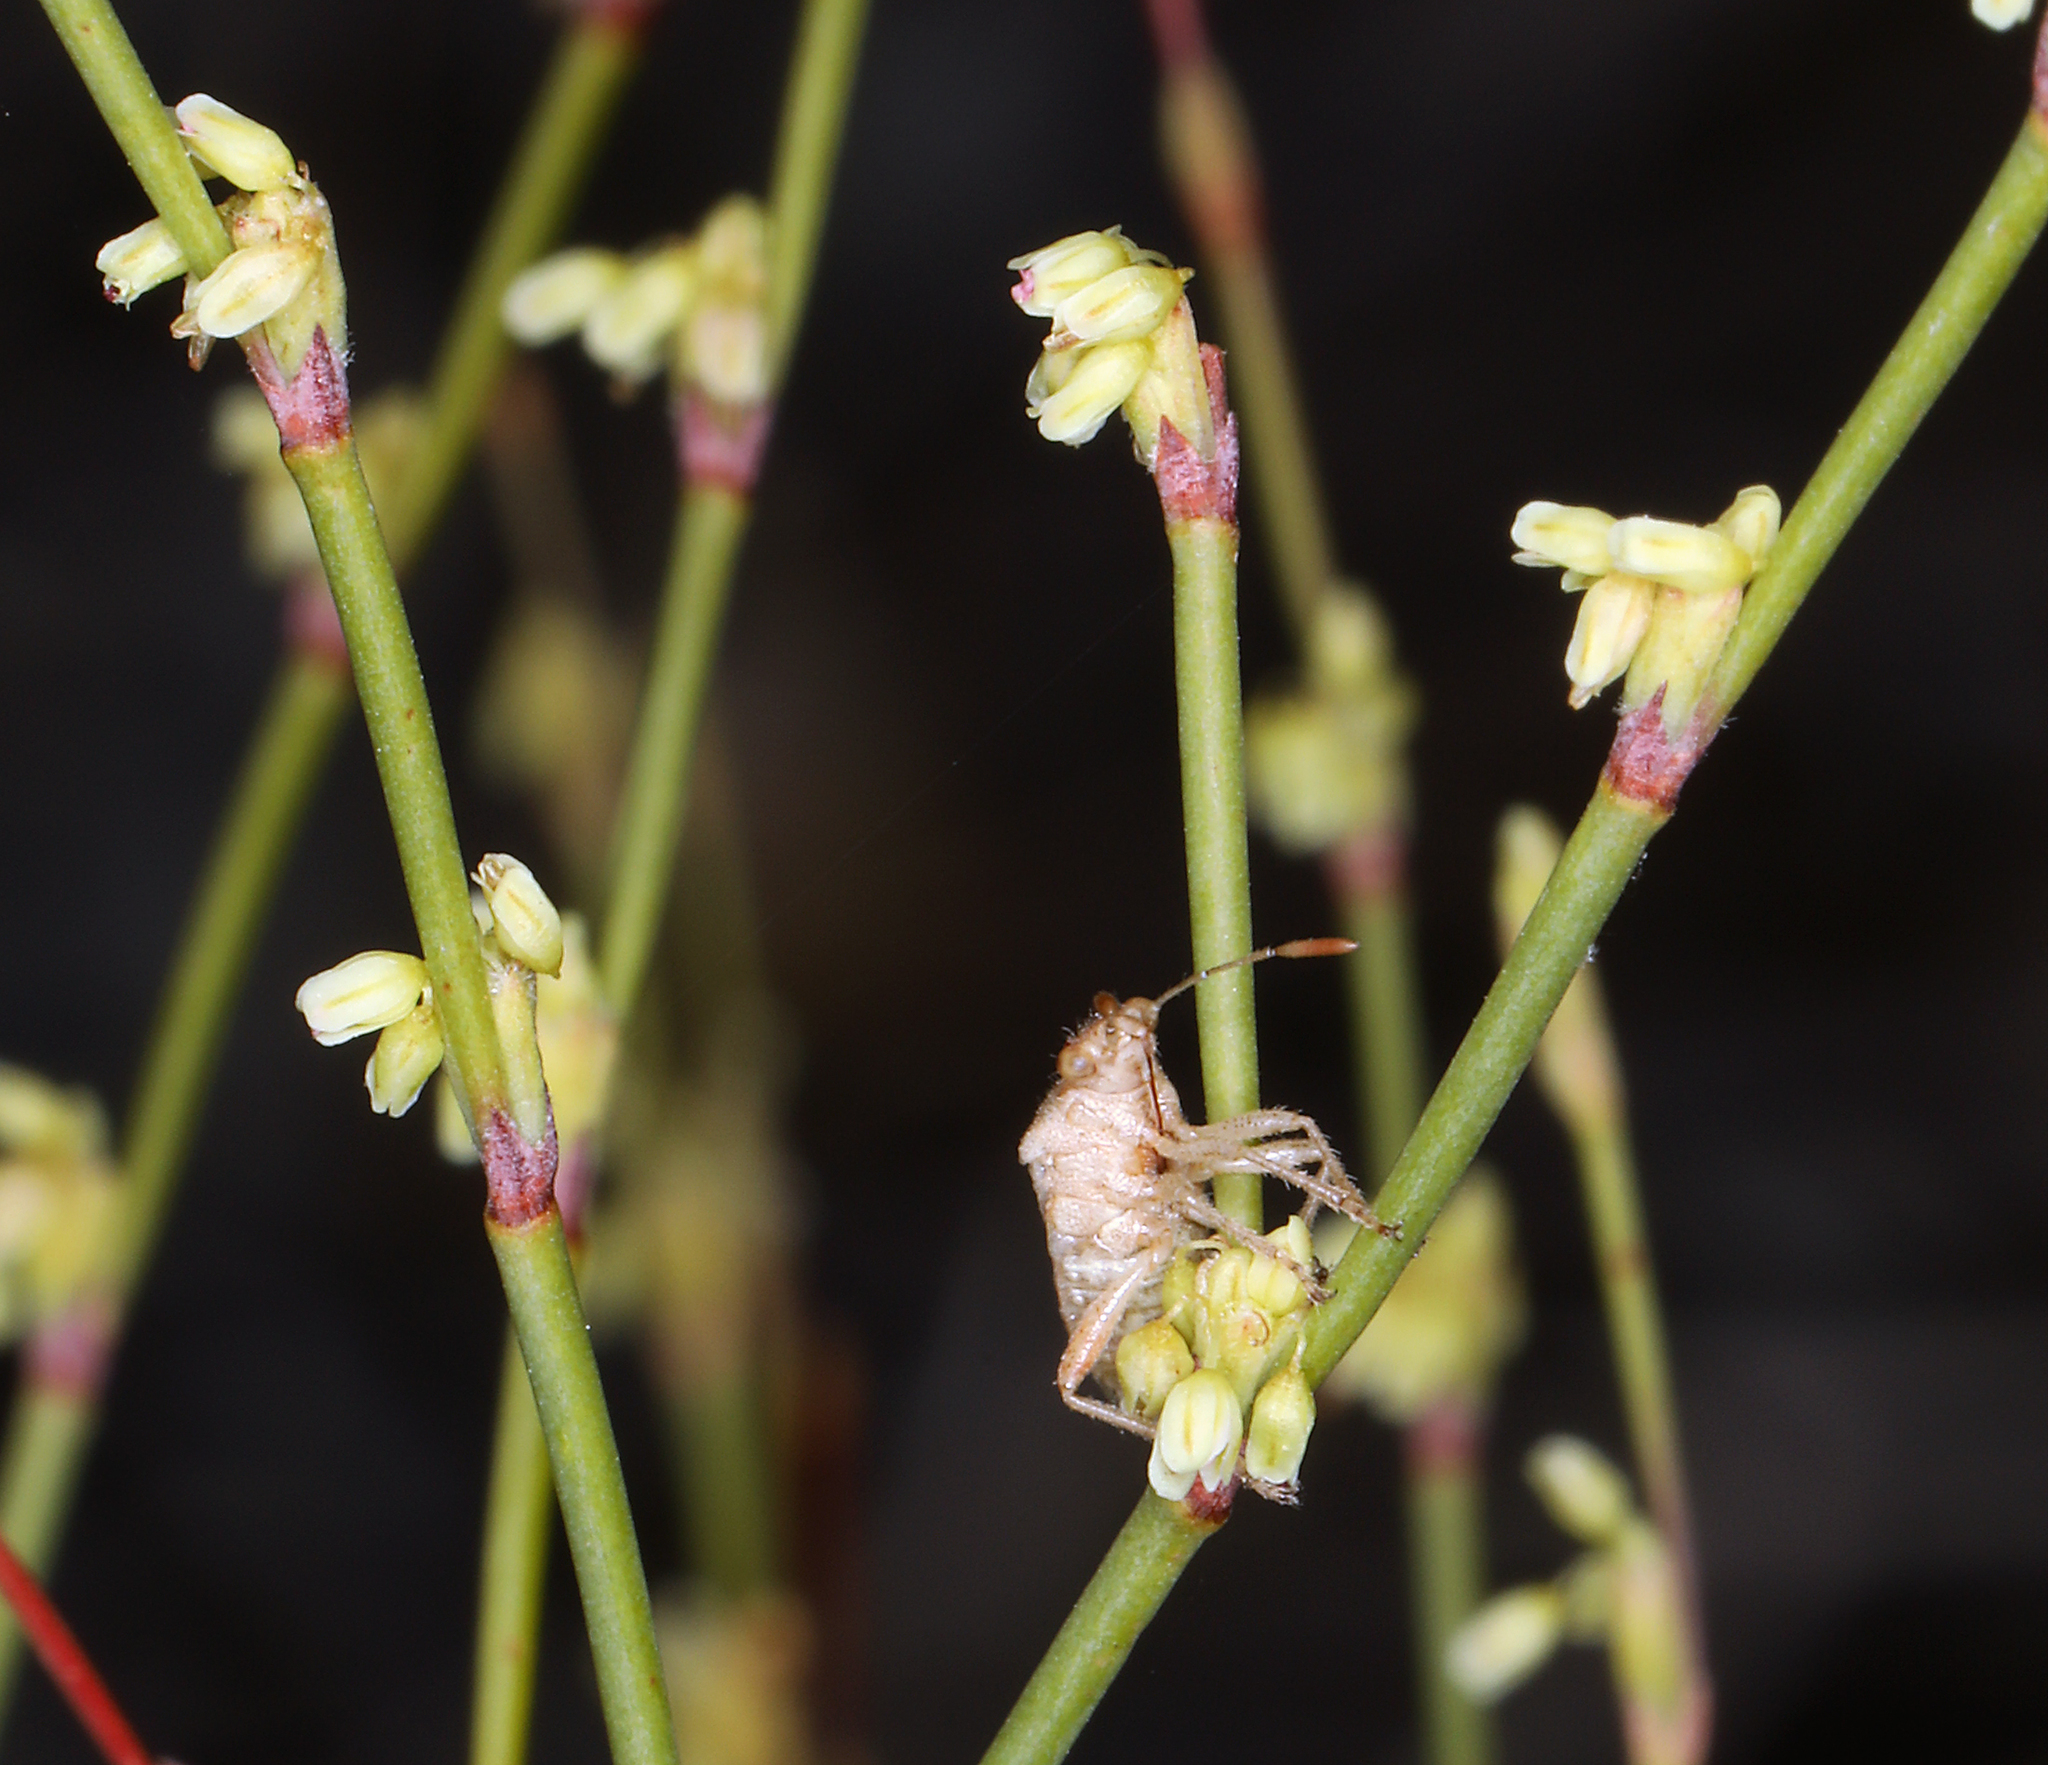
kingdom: Plantae
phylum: Tracheophyta
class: Magnoliopsida
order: Caryophyllales
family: Polygonaceae
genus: Eriogonum
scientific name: Eriogonum brachyanthum
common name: Short-flower wild buckwheat
